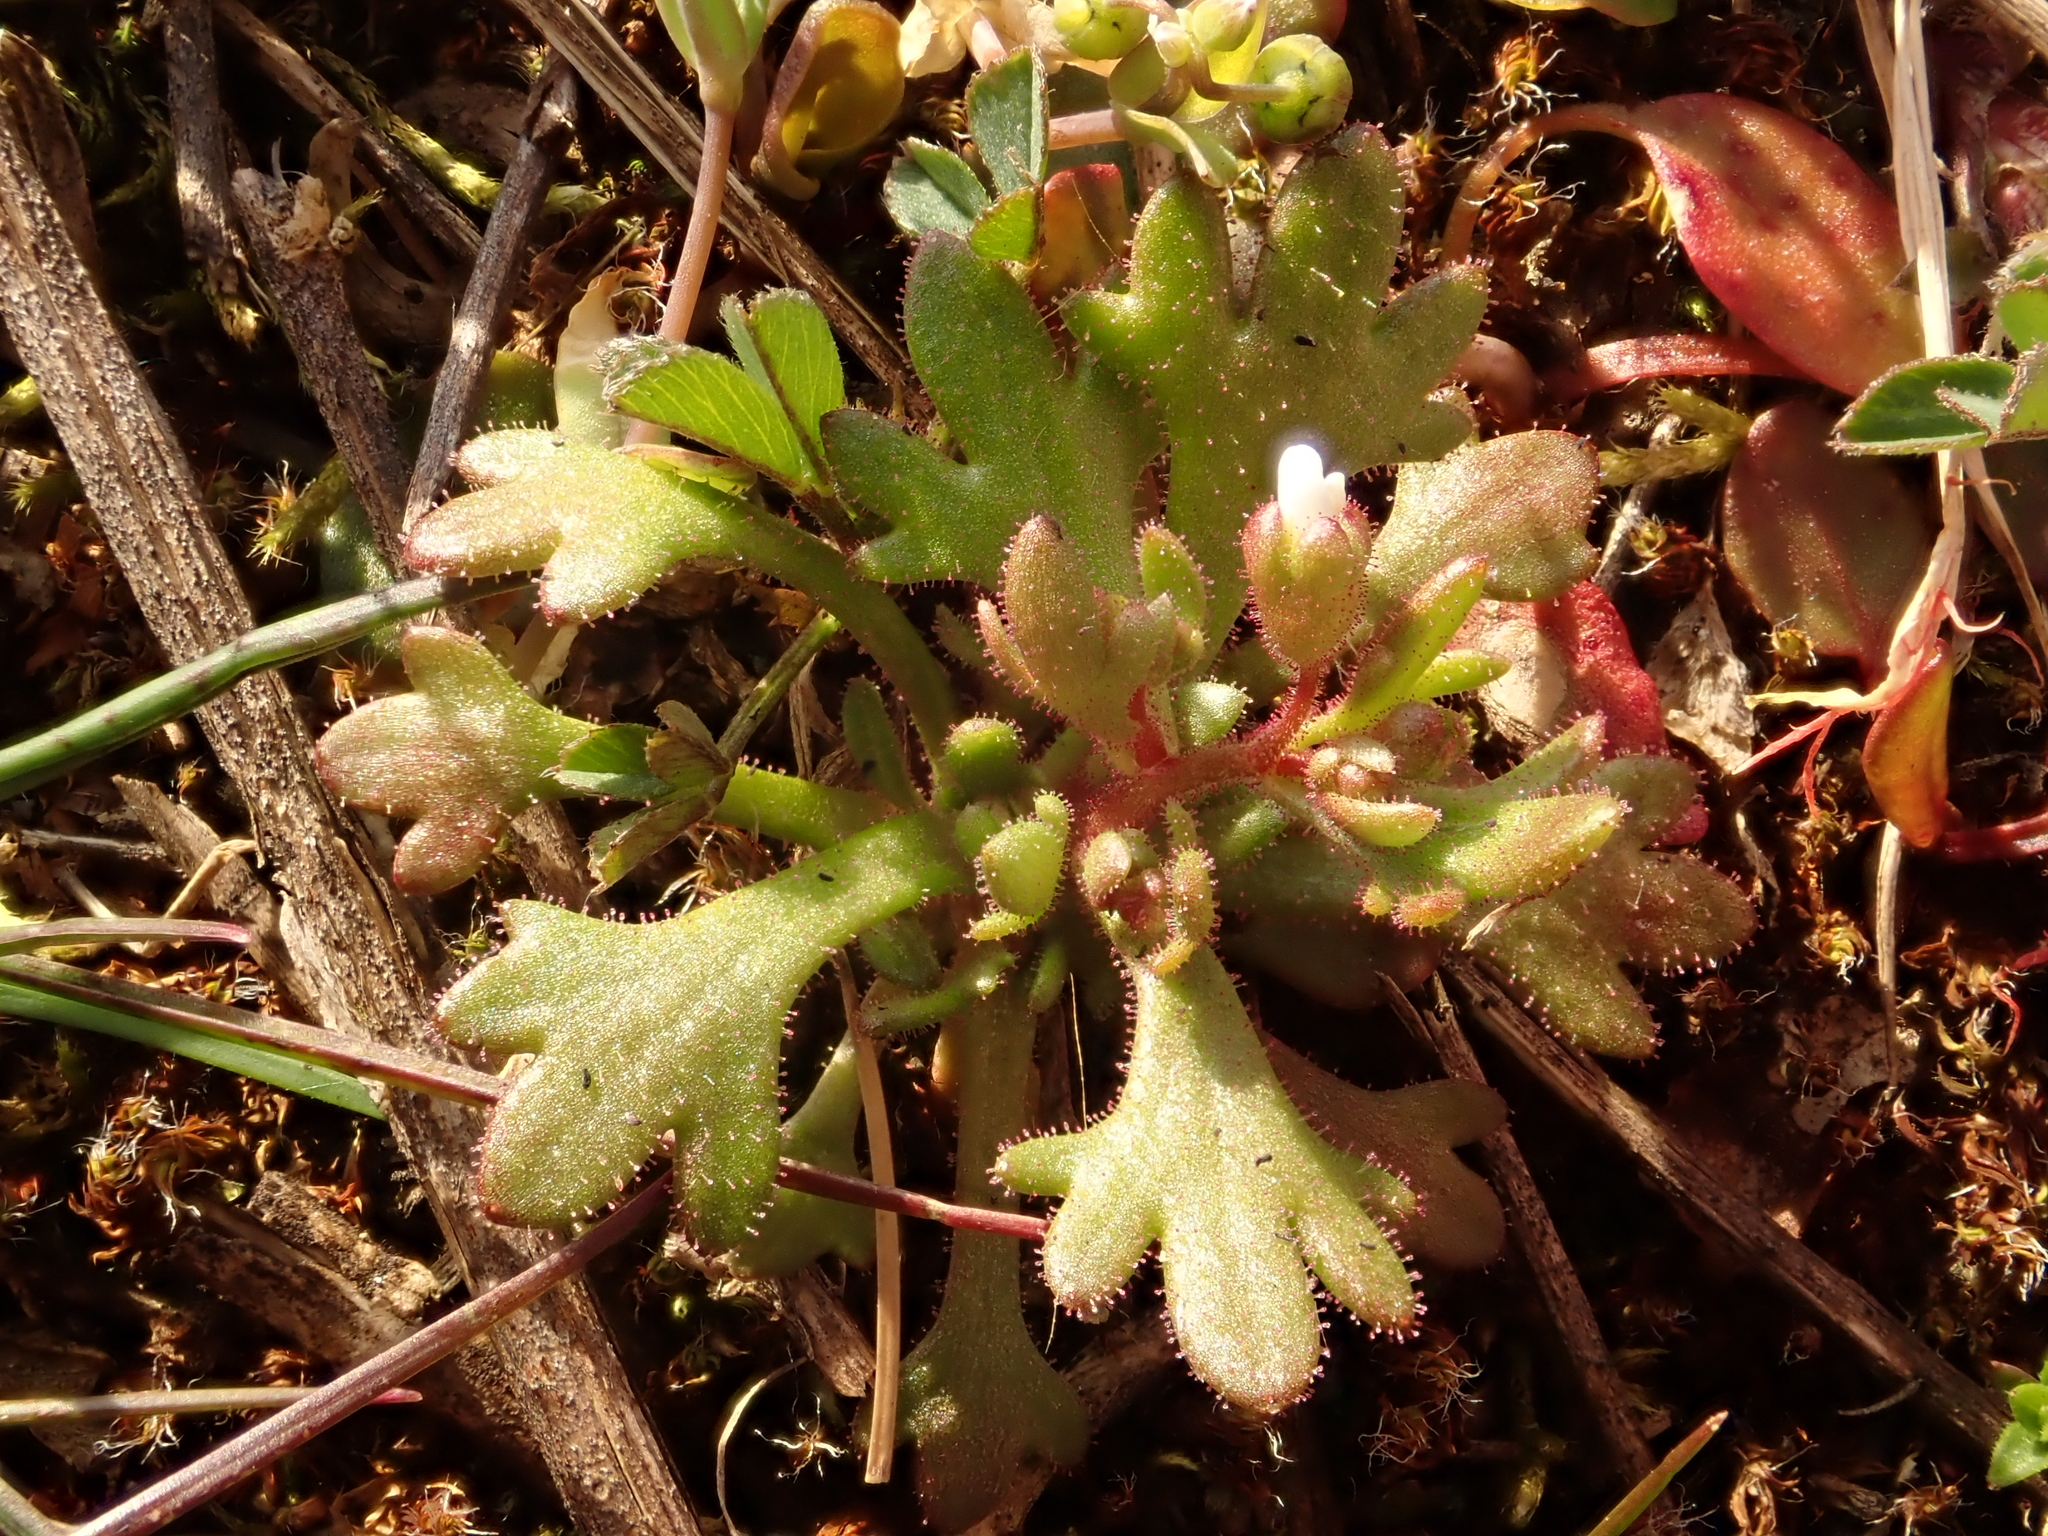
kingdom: Plantae
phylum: Tracheophyta
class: Magnoliopsida
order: Saxifragales
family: Saxifragaceae
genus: Saxifraga
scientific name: Saxifraga tridactylites
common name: Rue-leaved saxifrage
